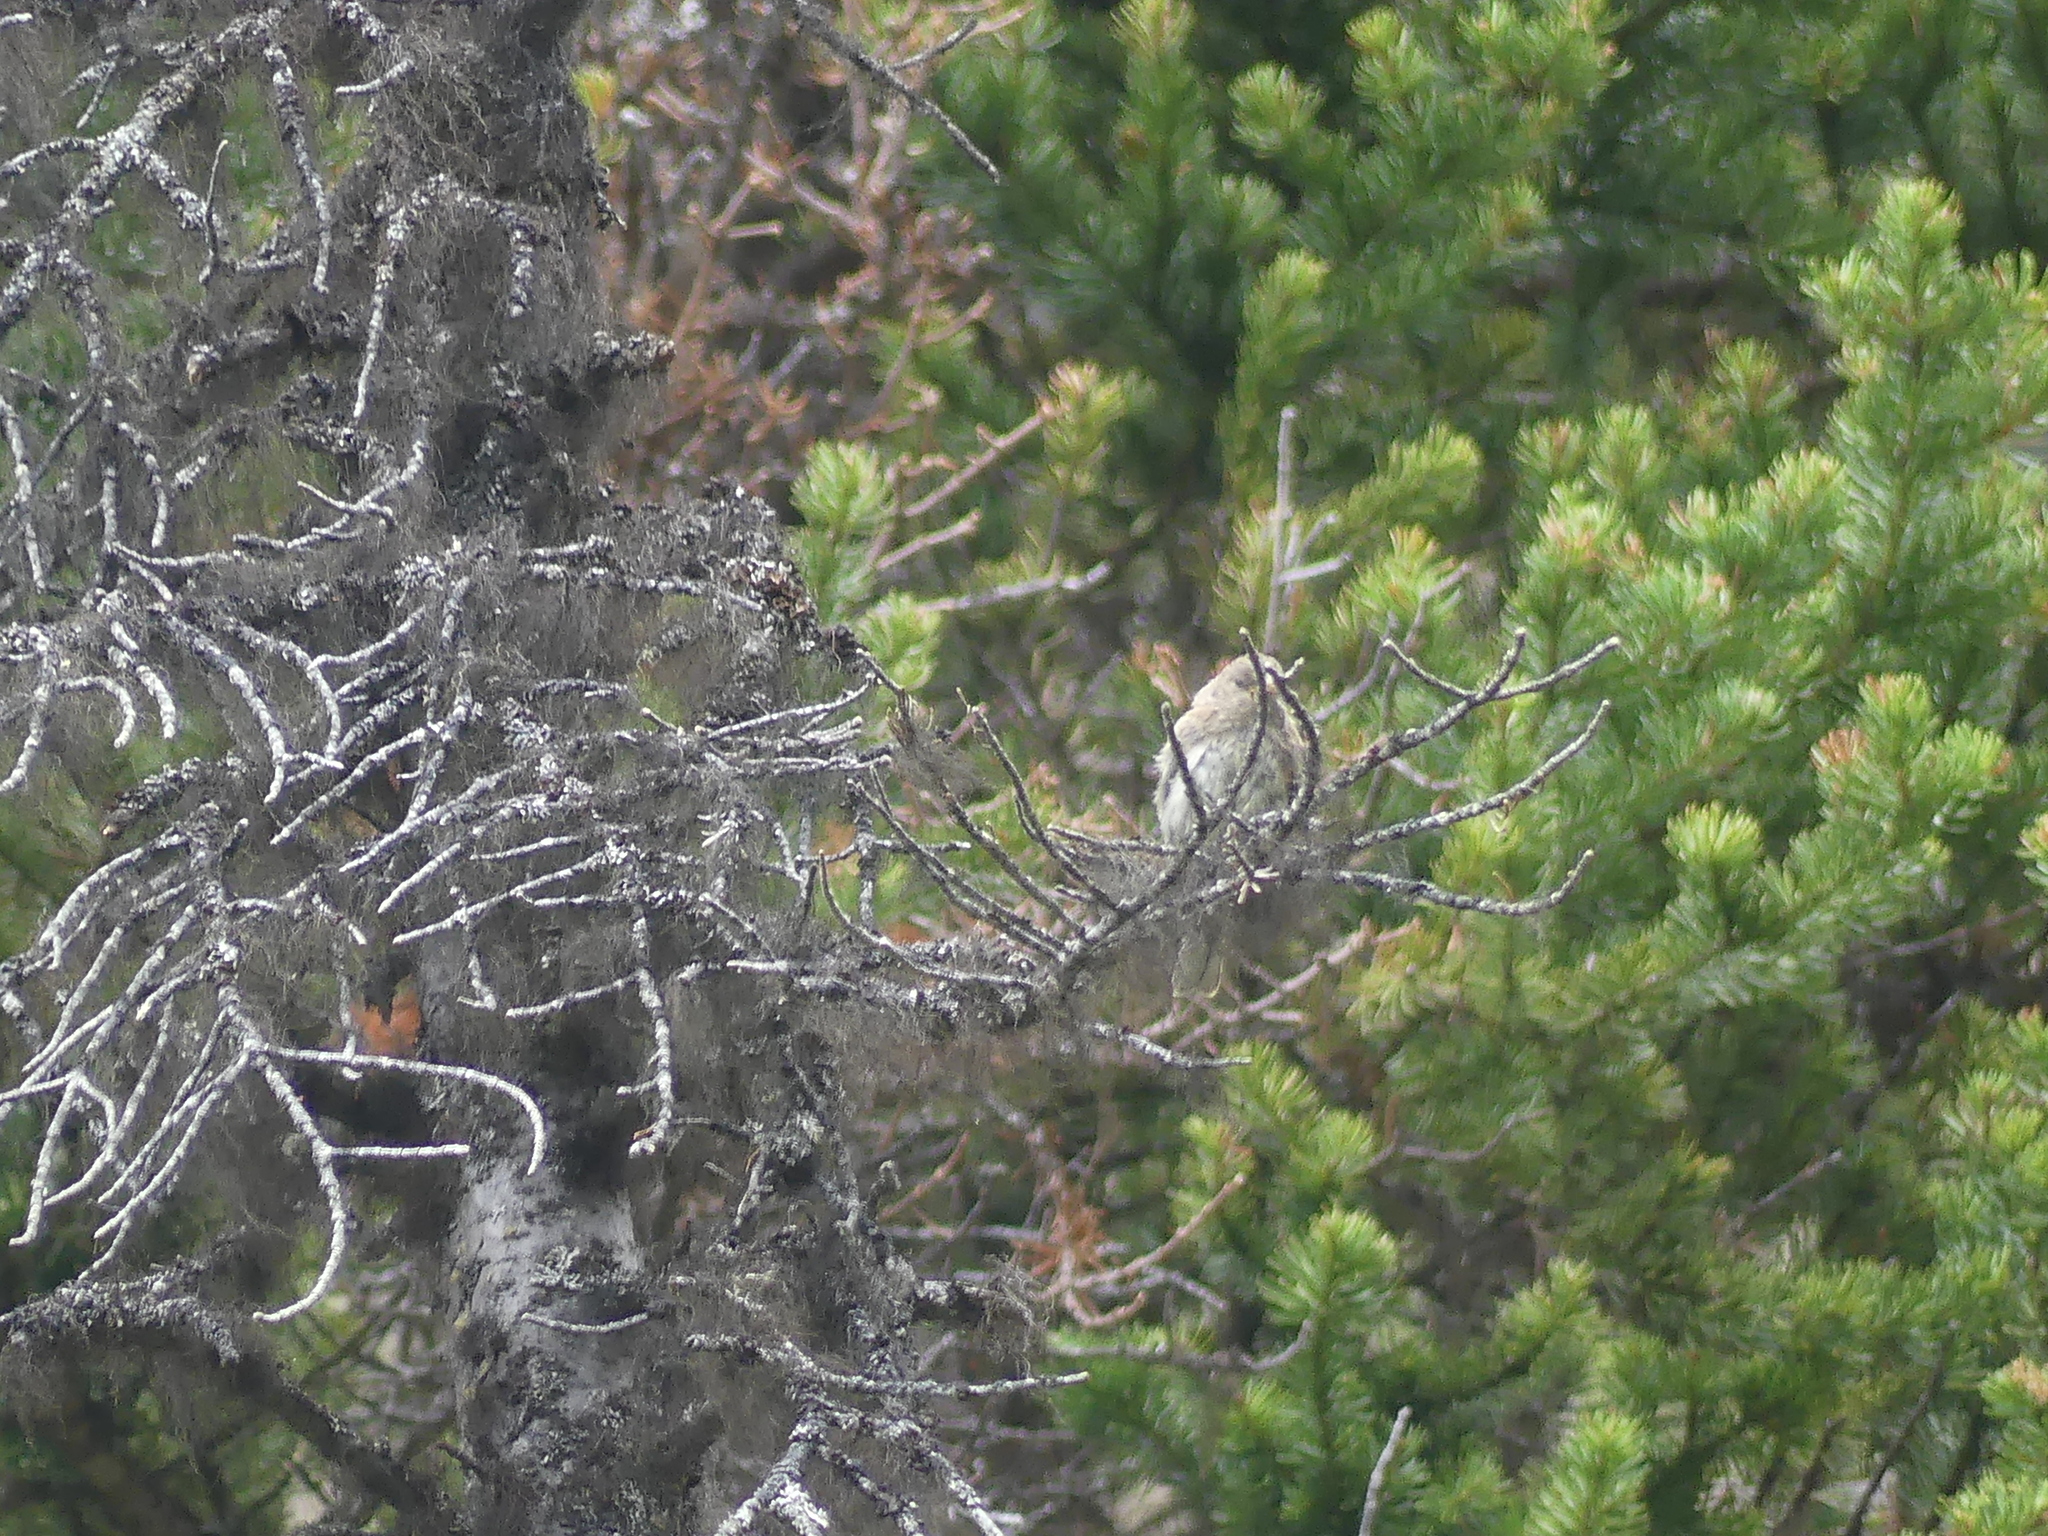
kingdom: Animalia
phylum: Chordata
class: Aves
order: Passeriformes
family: Passerellidae
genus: Junco
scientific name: Junco hyemalis
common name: Dark-eyed junco
